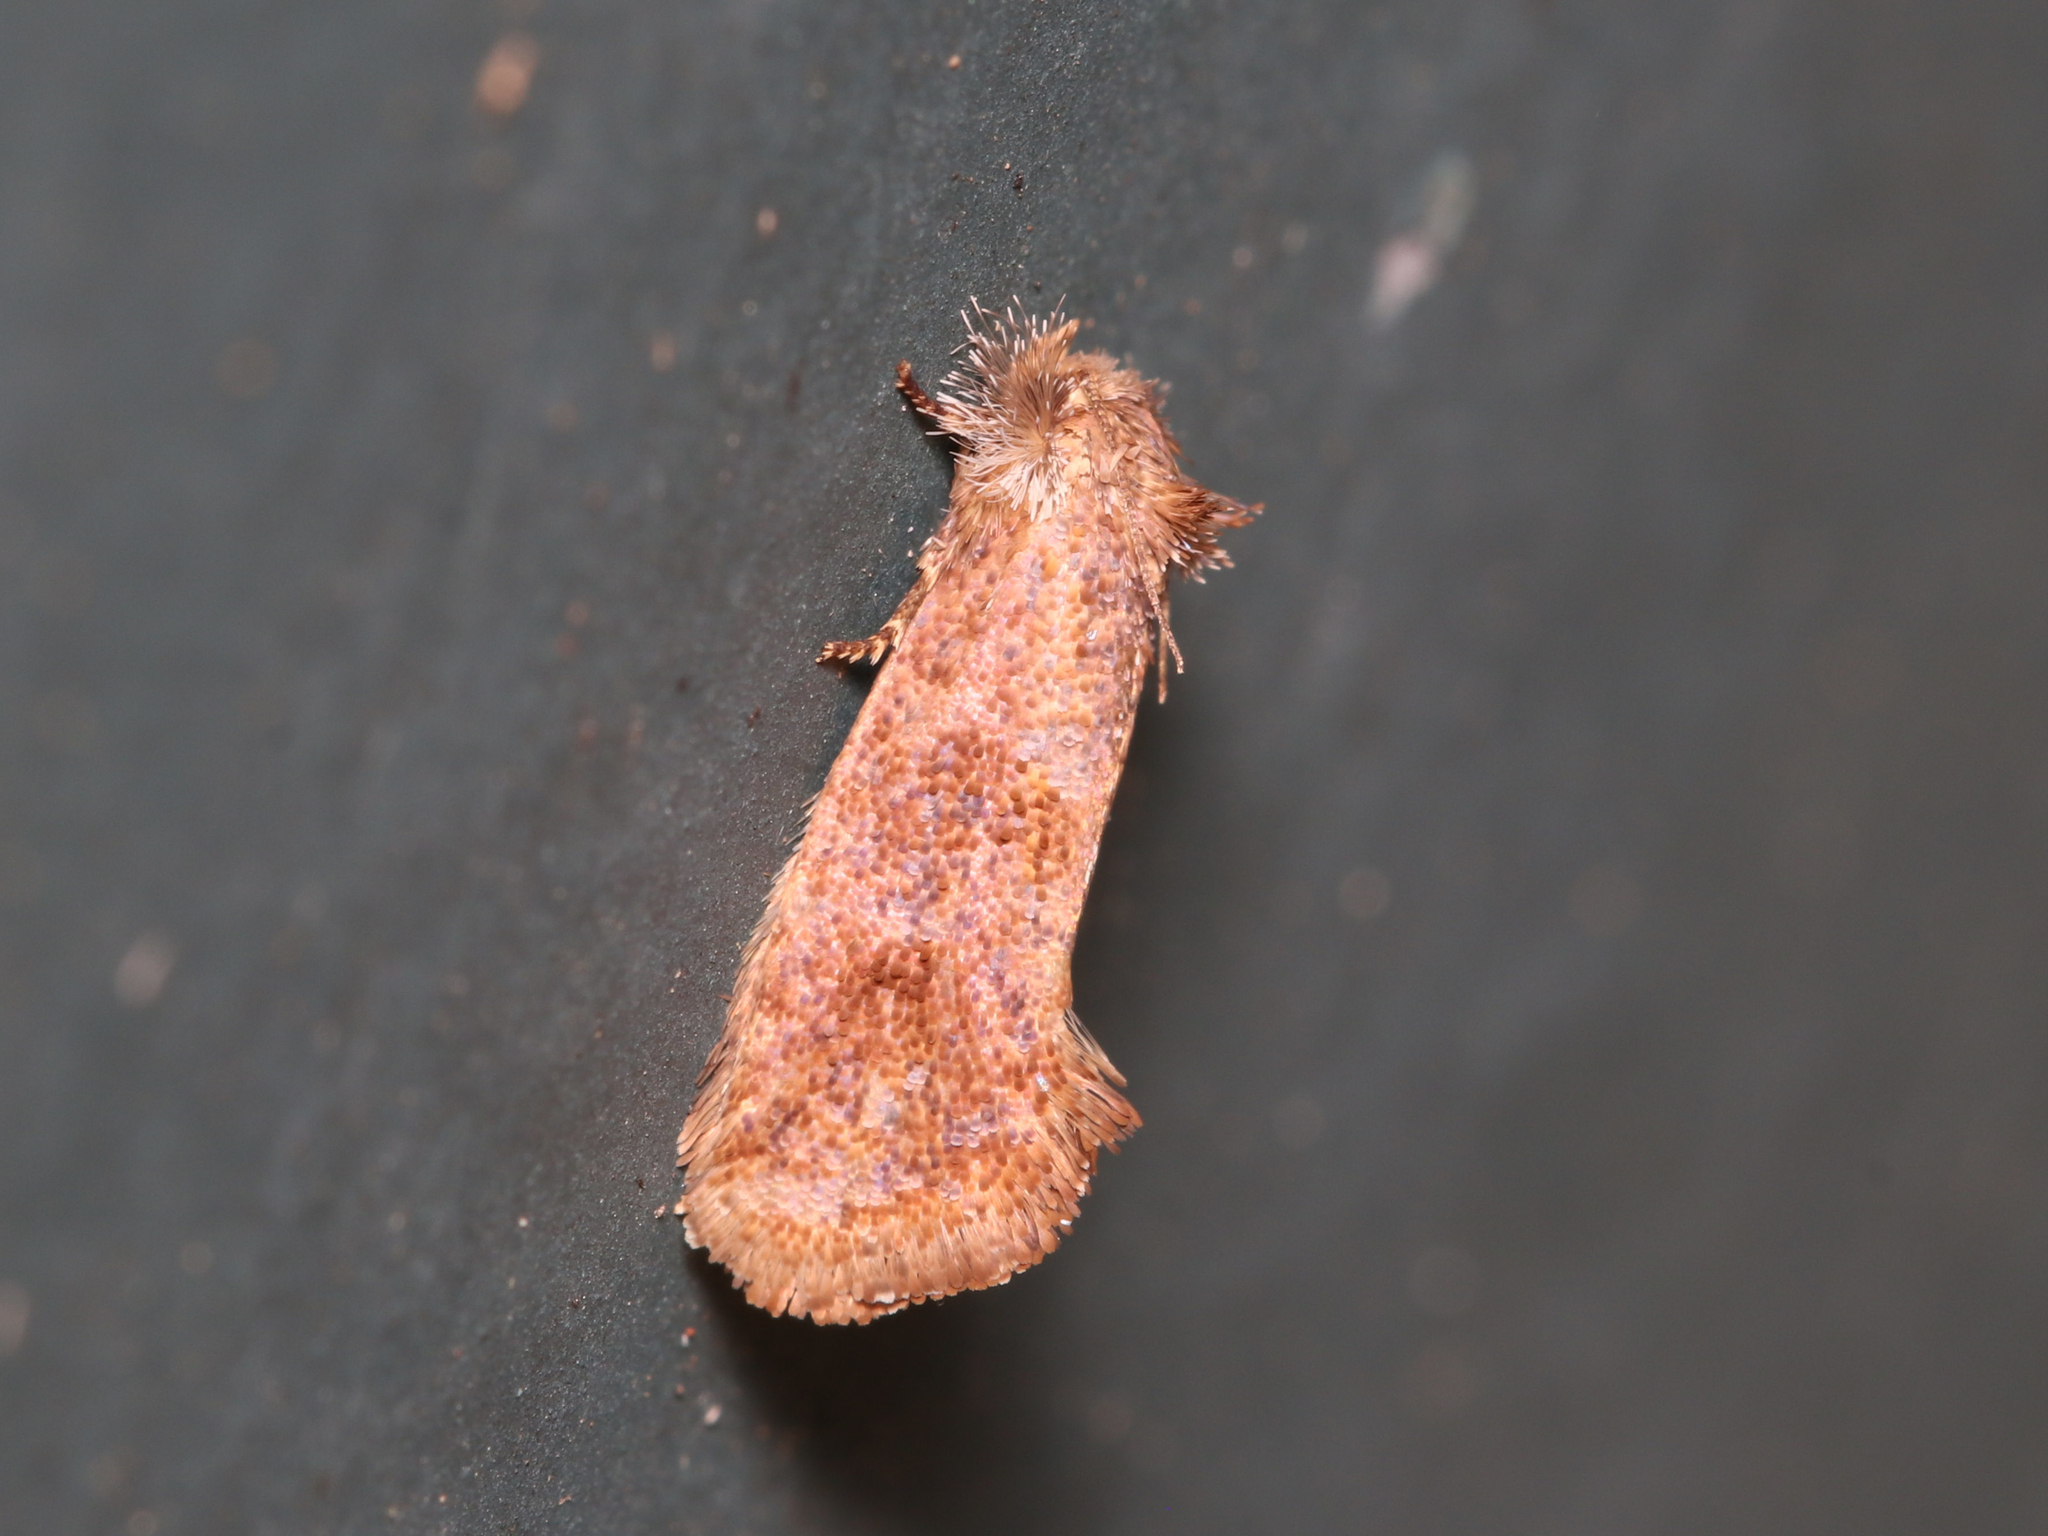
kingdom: Animalia
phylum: Arthropoda
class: Insecta
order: Lepidoptera
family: Tineidae
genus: Acrolophus
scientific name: Acrolophus panamae
